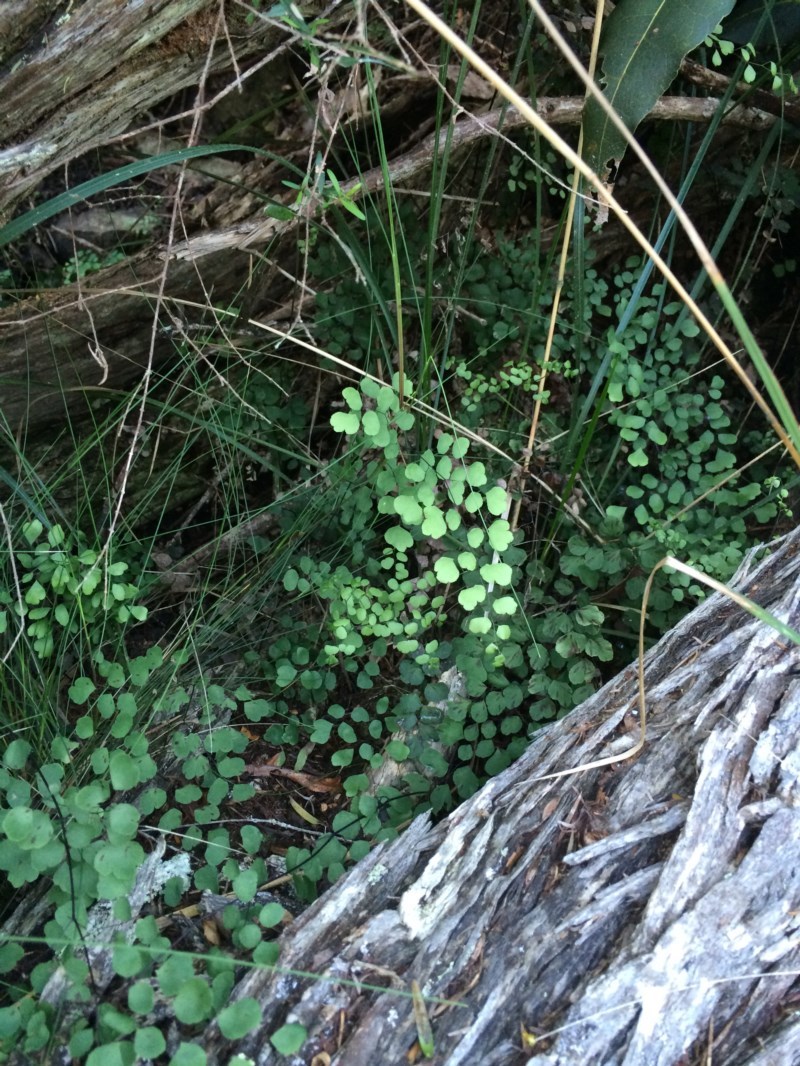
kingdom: Plantae
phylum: Tracheophyta
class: Polypodiopsida
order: Polypodiales
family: Pteridaceae
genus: Adiantum
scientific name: Adiantum aethiopicum
